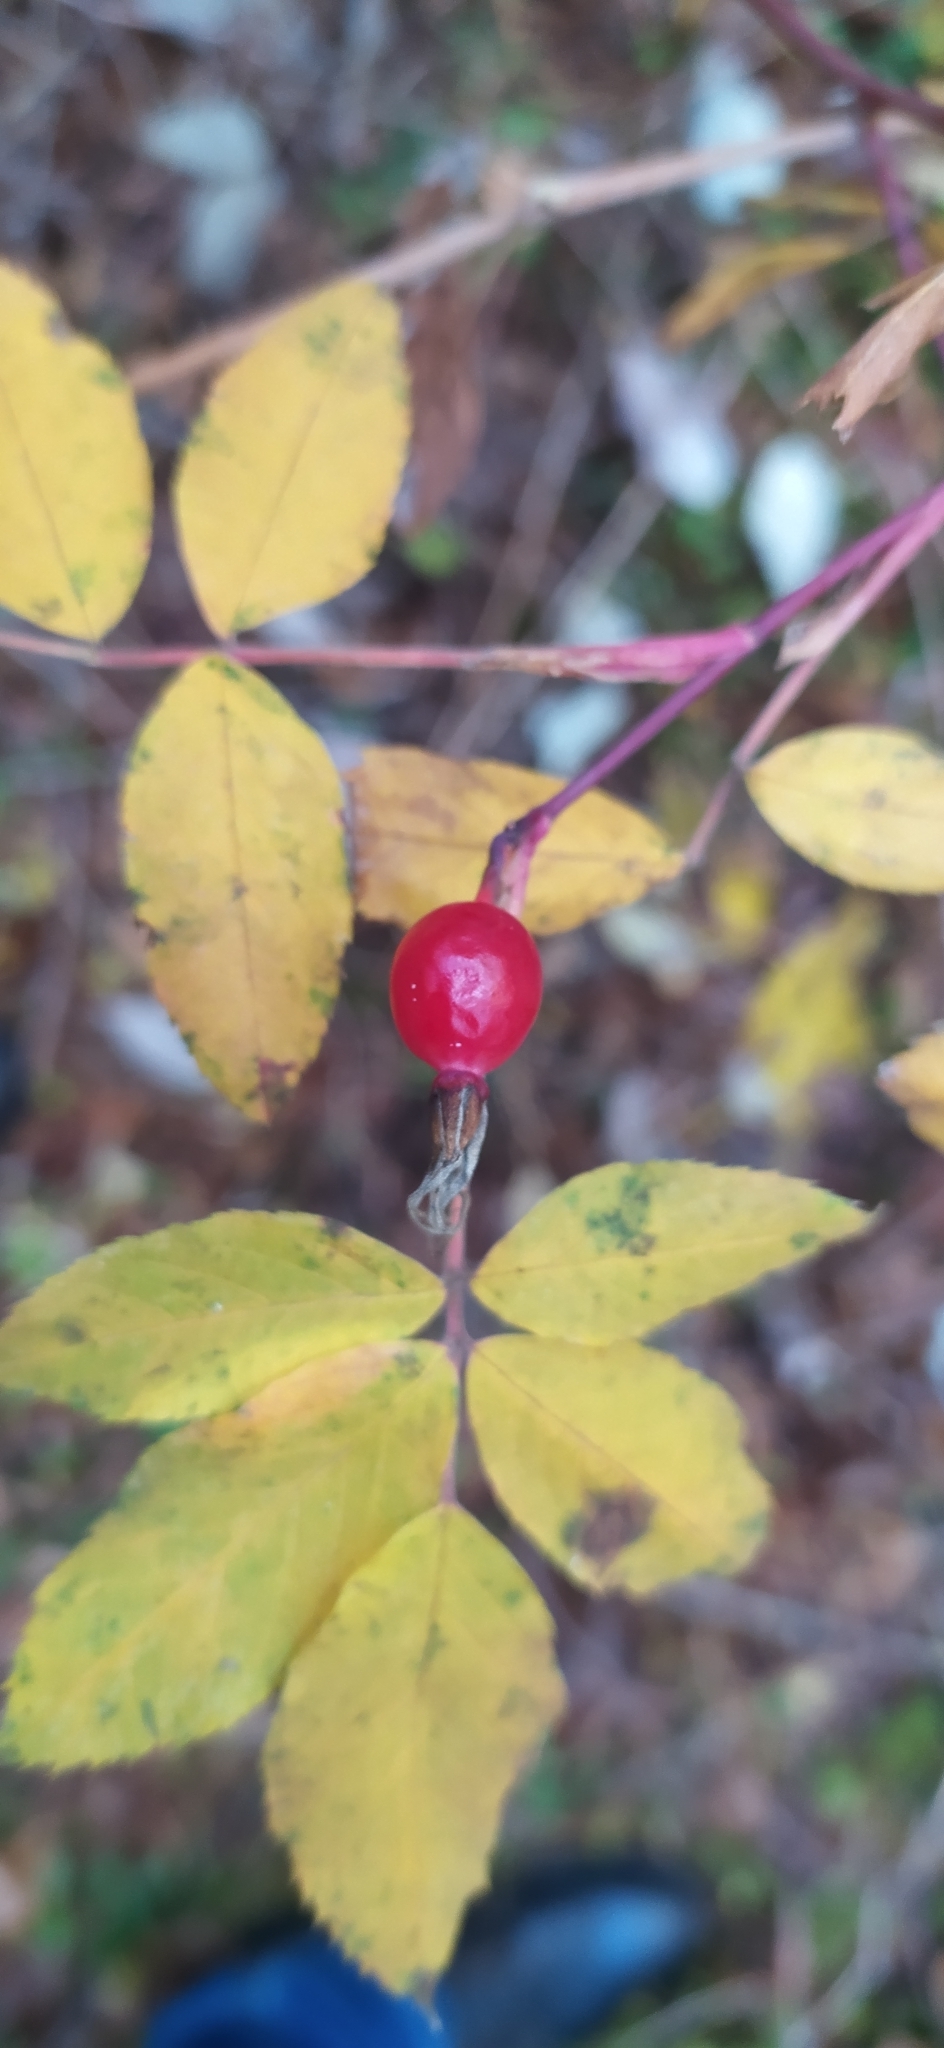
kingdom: Plantae
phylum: Tracheophyta
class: Magnoliopsida
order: Rosales
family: Rosaceae
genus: Rosa
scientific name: Rosa majalis
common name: Cinnamon rose
